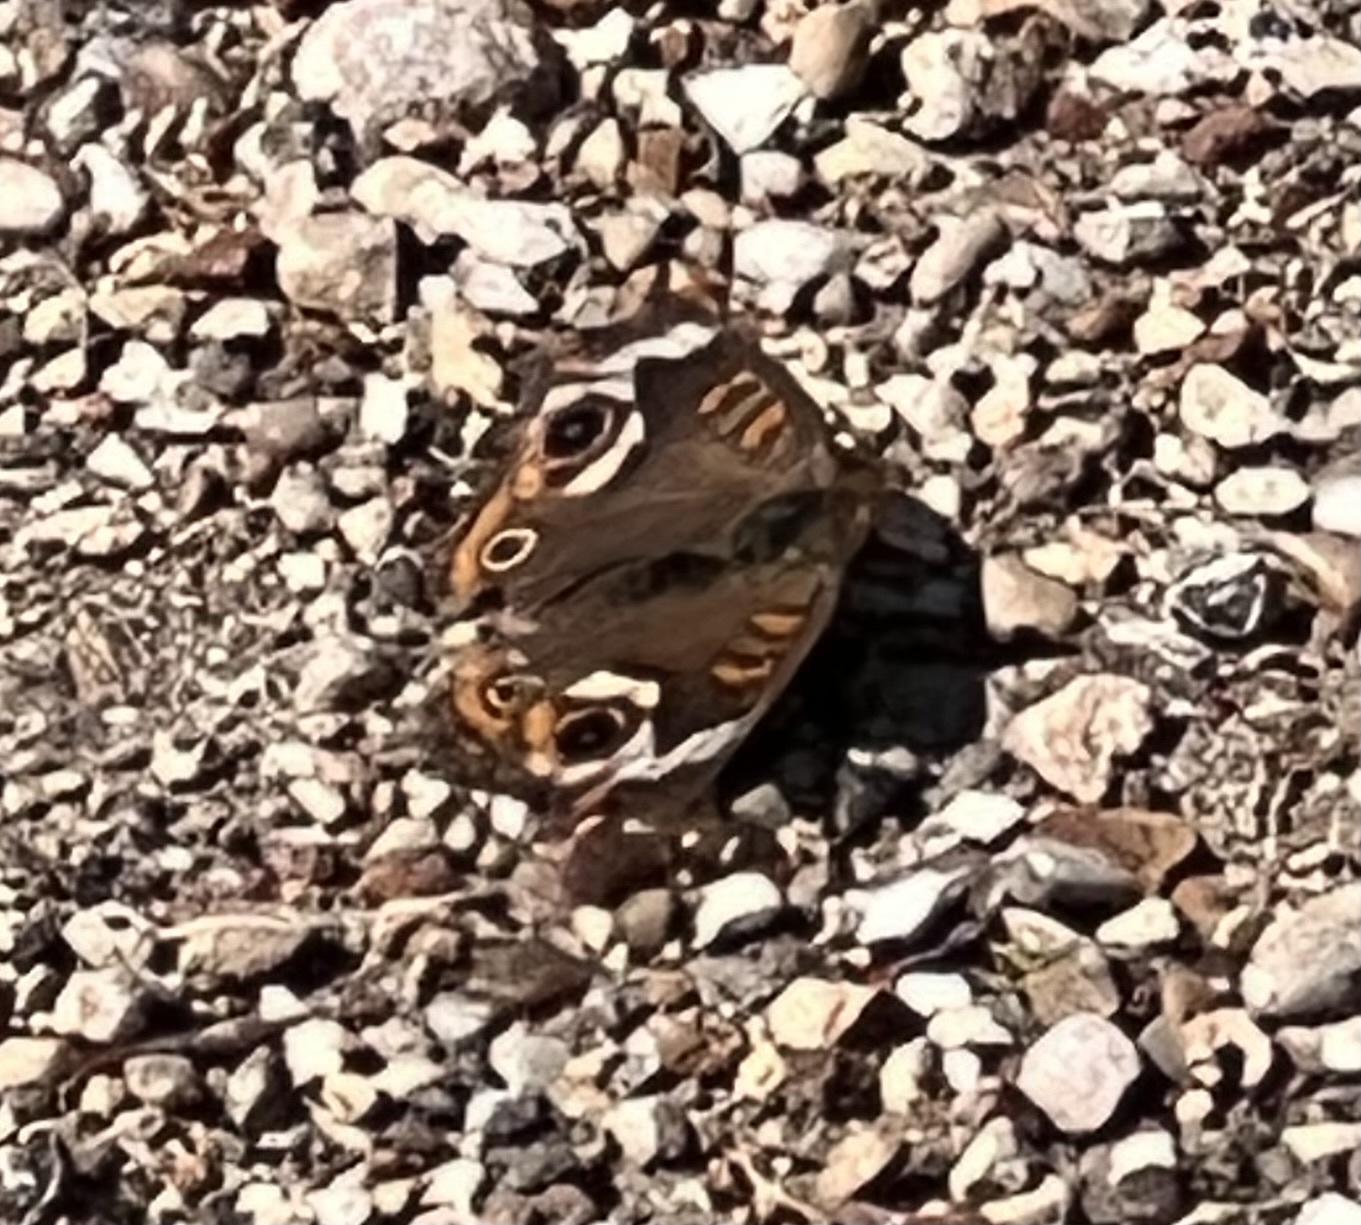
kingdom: Animalia
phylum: Arthropoda
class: Insecta
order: Lepidoptera
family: Nymphalidae
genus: Junonia
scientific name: Junonia coenia
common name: Common buckeye
